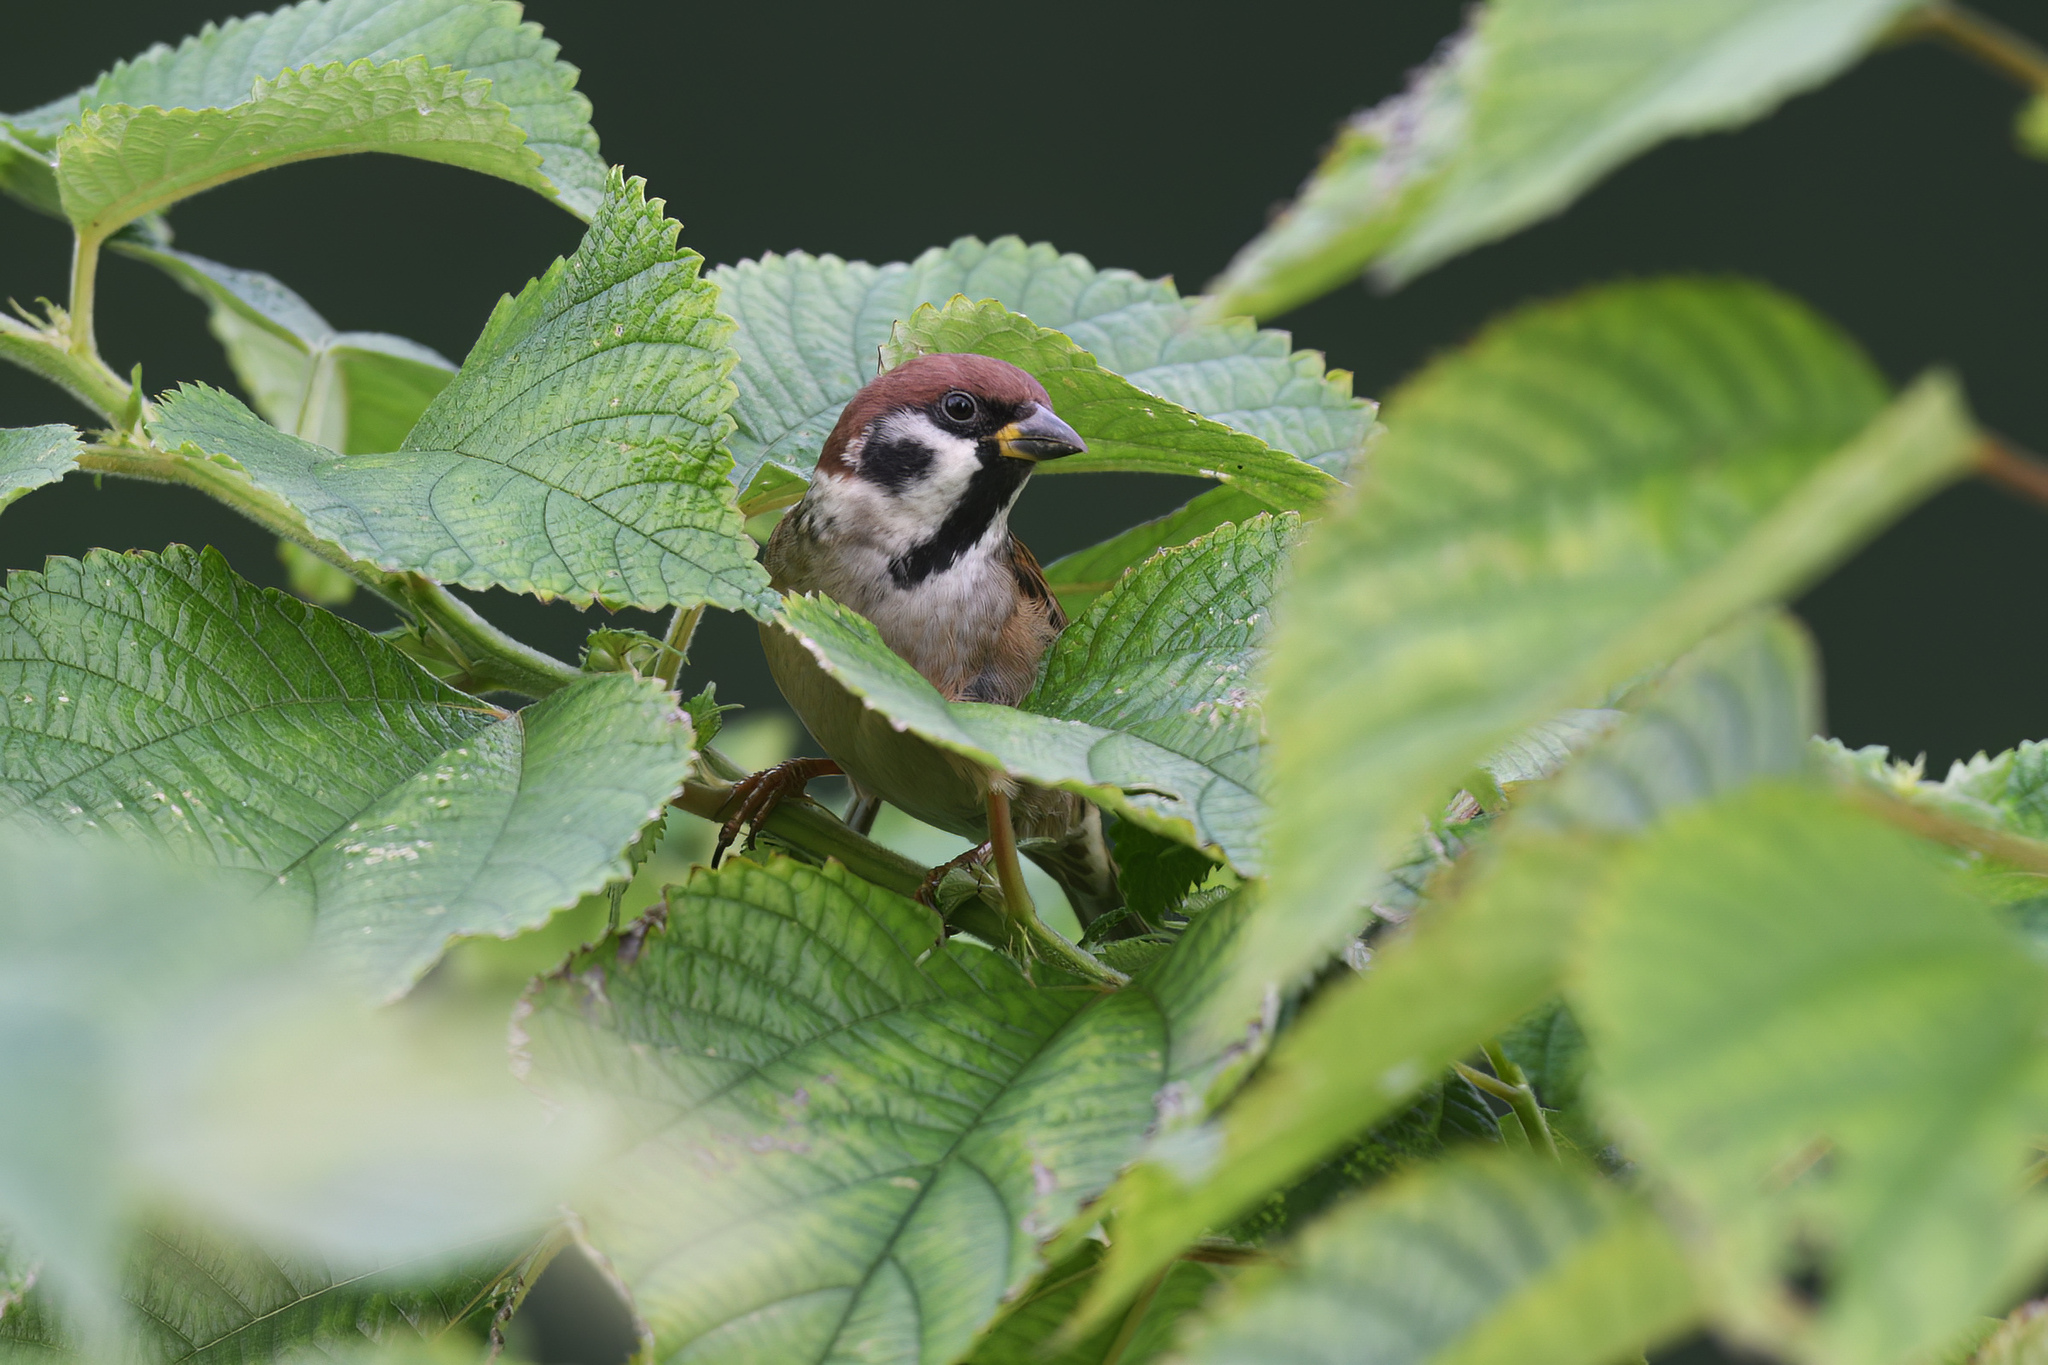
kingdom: Animalia
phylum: Chordata
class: Aves
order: Passeriformes
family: Passeridae
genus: Passer
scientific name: Passer montanus
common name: Eurasian tree sparrow
